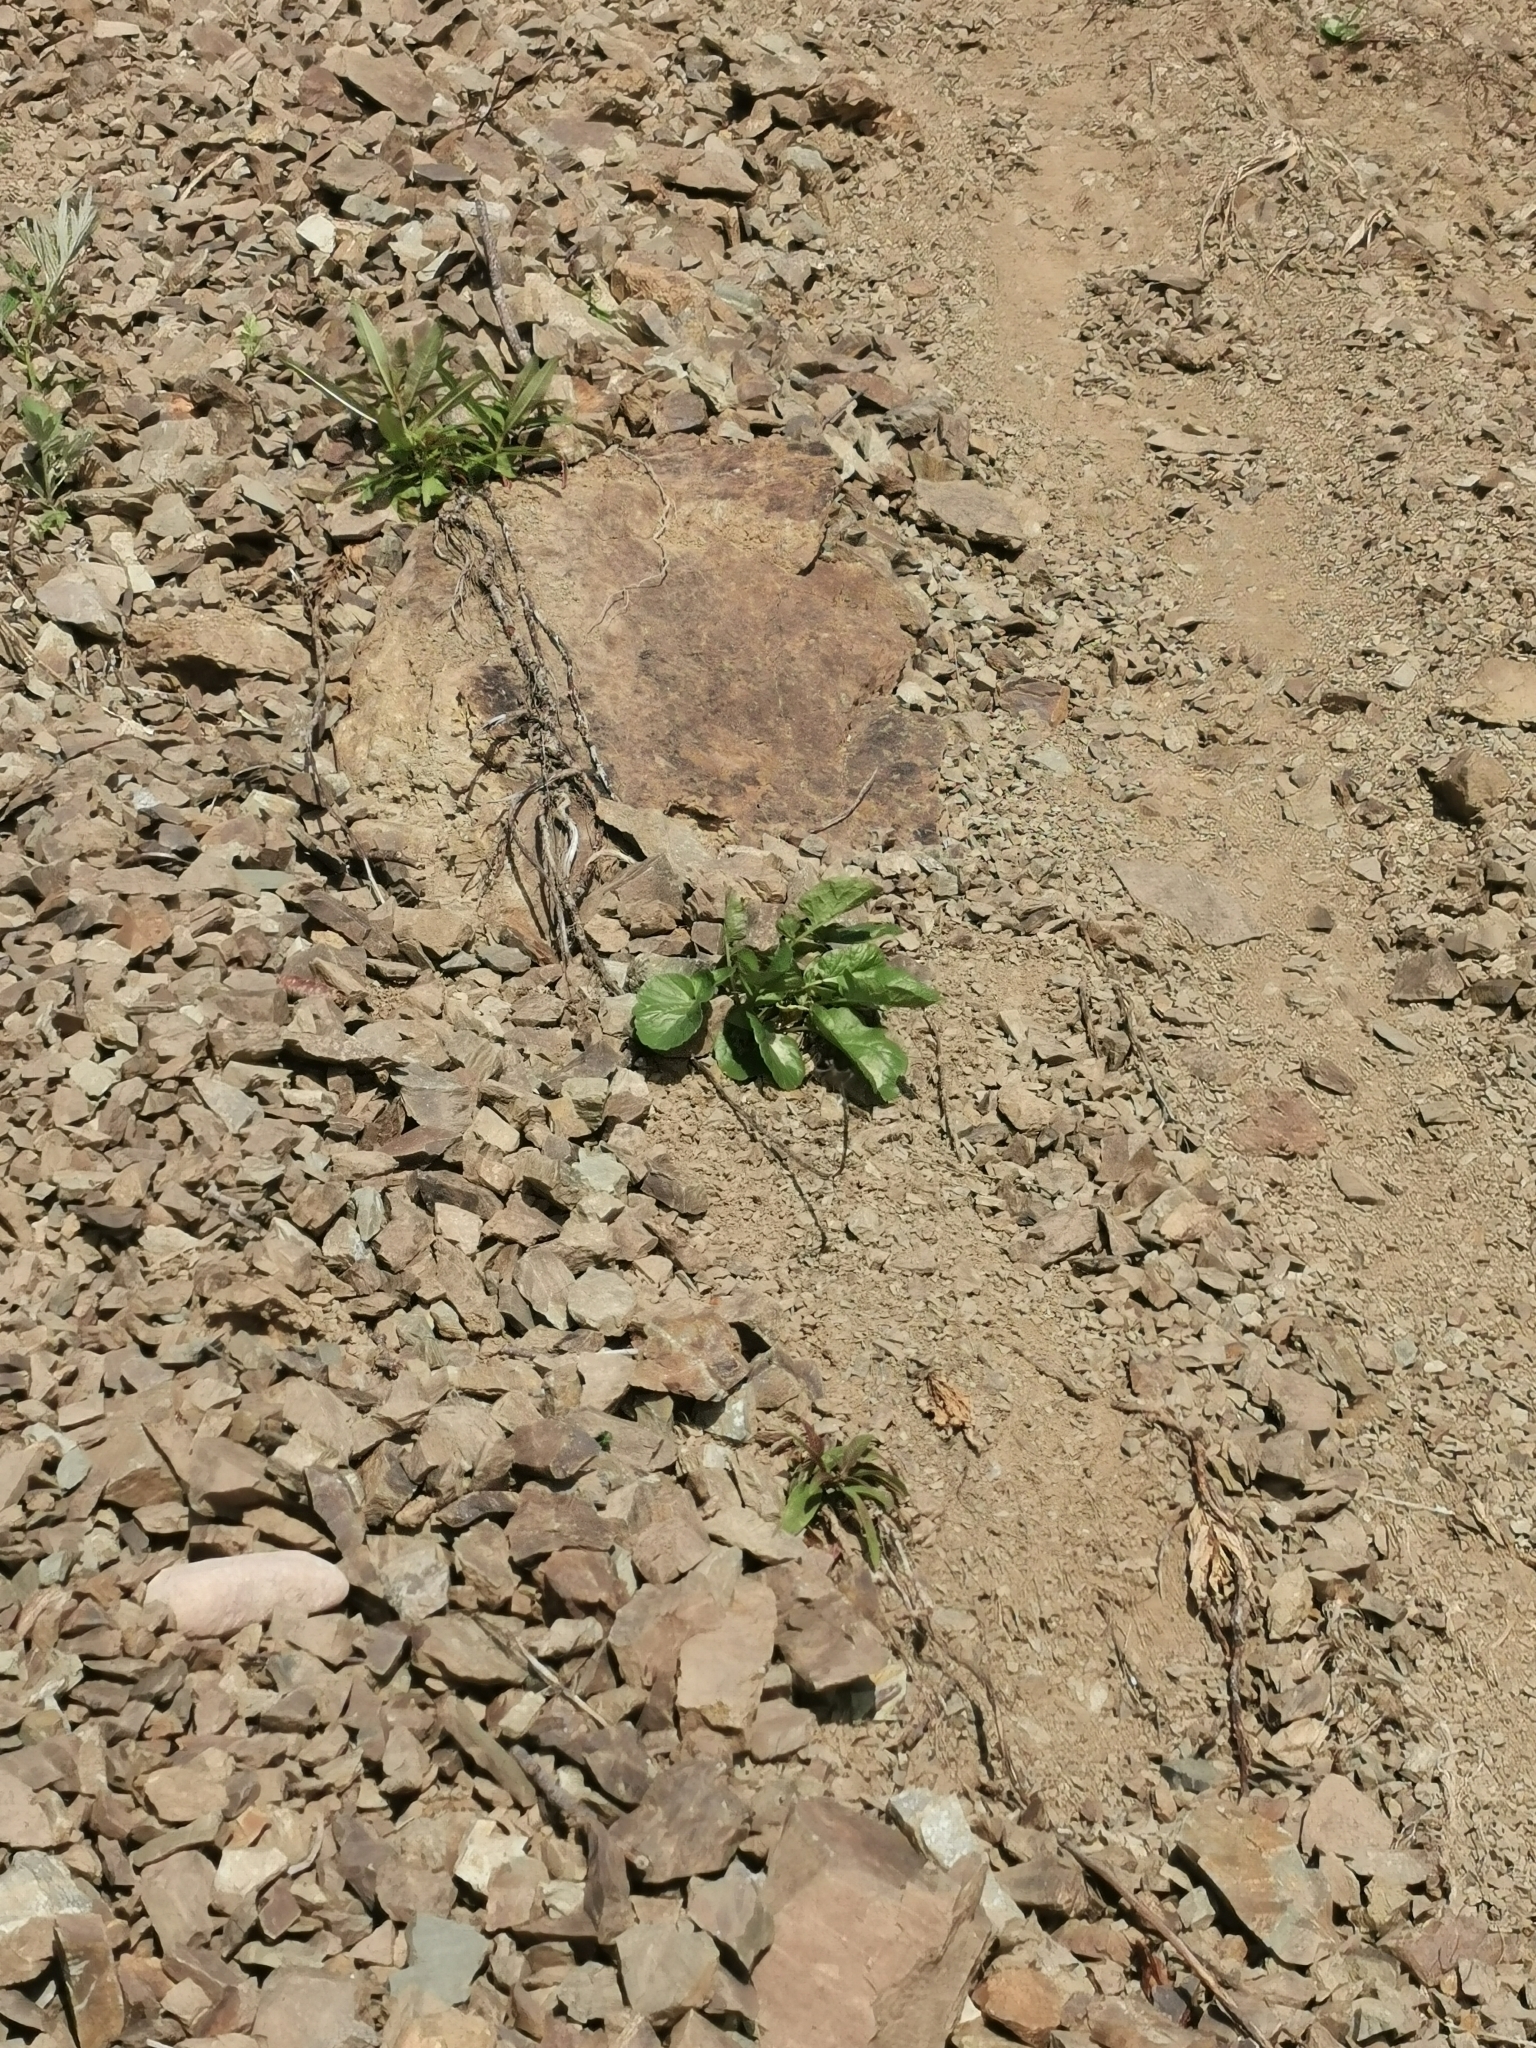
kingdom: Plantae
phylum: Tracheophyta
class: Magnoliopsida
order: Brassicales
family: Brassicaceae
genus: Barbarea
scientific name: Barbarea orthoceras
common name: American wintercress
